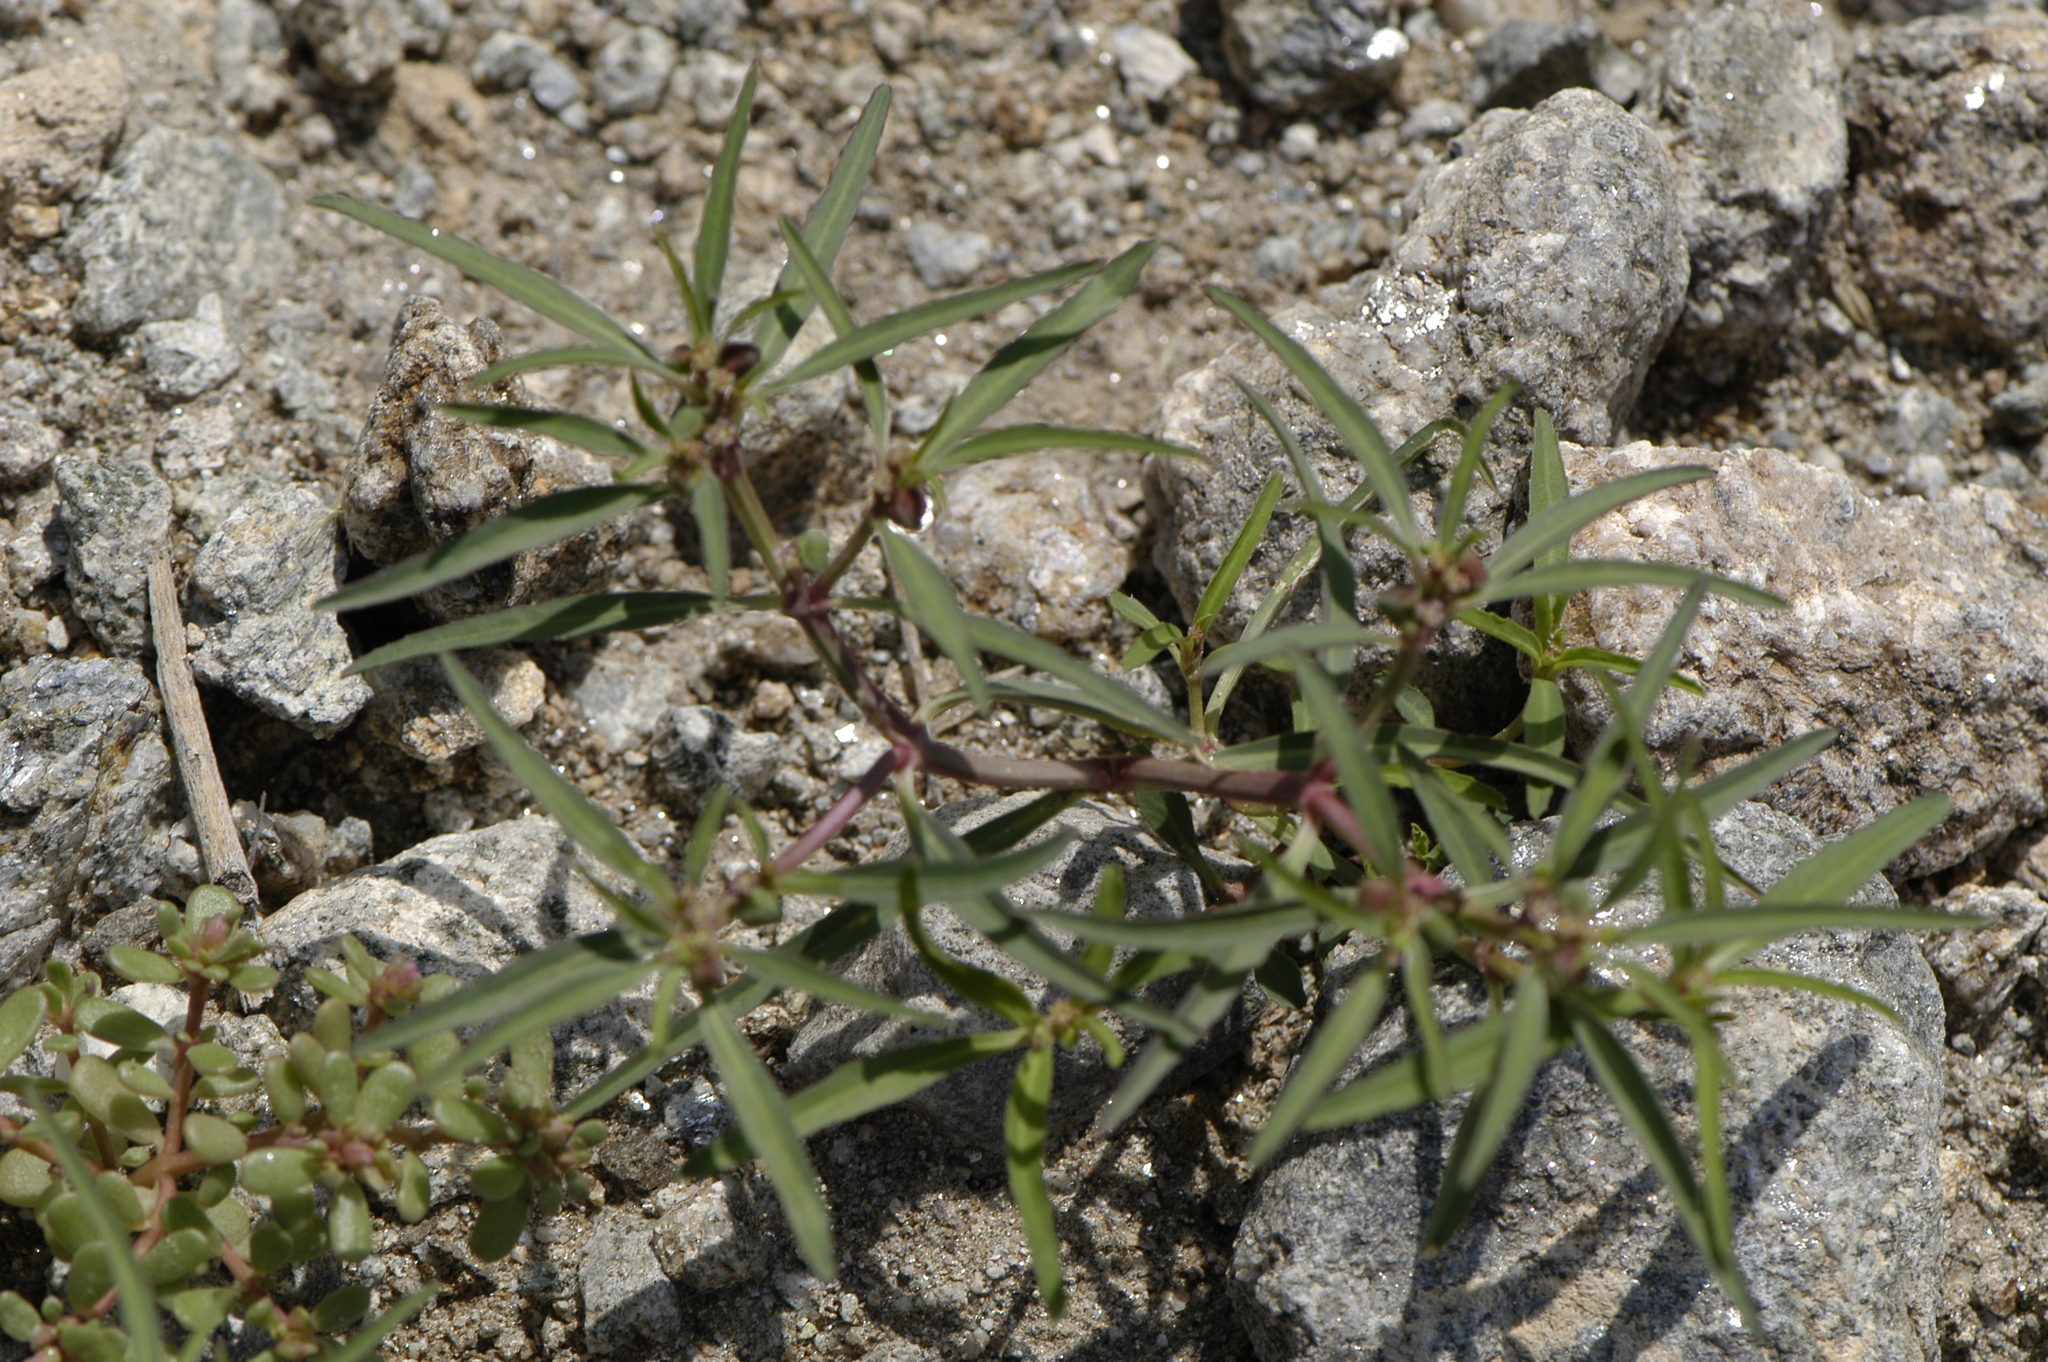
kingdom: Plantae
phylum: Tracheophyta
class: Magnoliopsida
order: Malpighiales
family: Euphorbiaceae
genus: Euphorbia
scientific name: Euphorbia exstipulata
